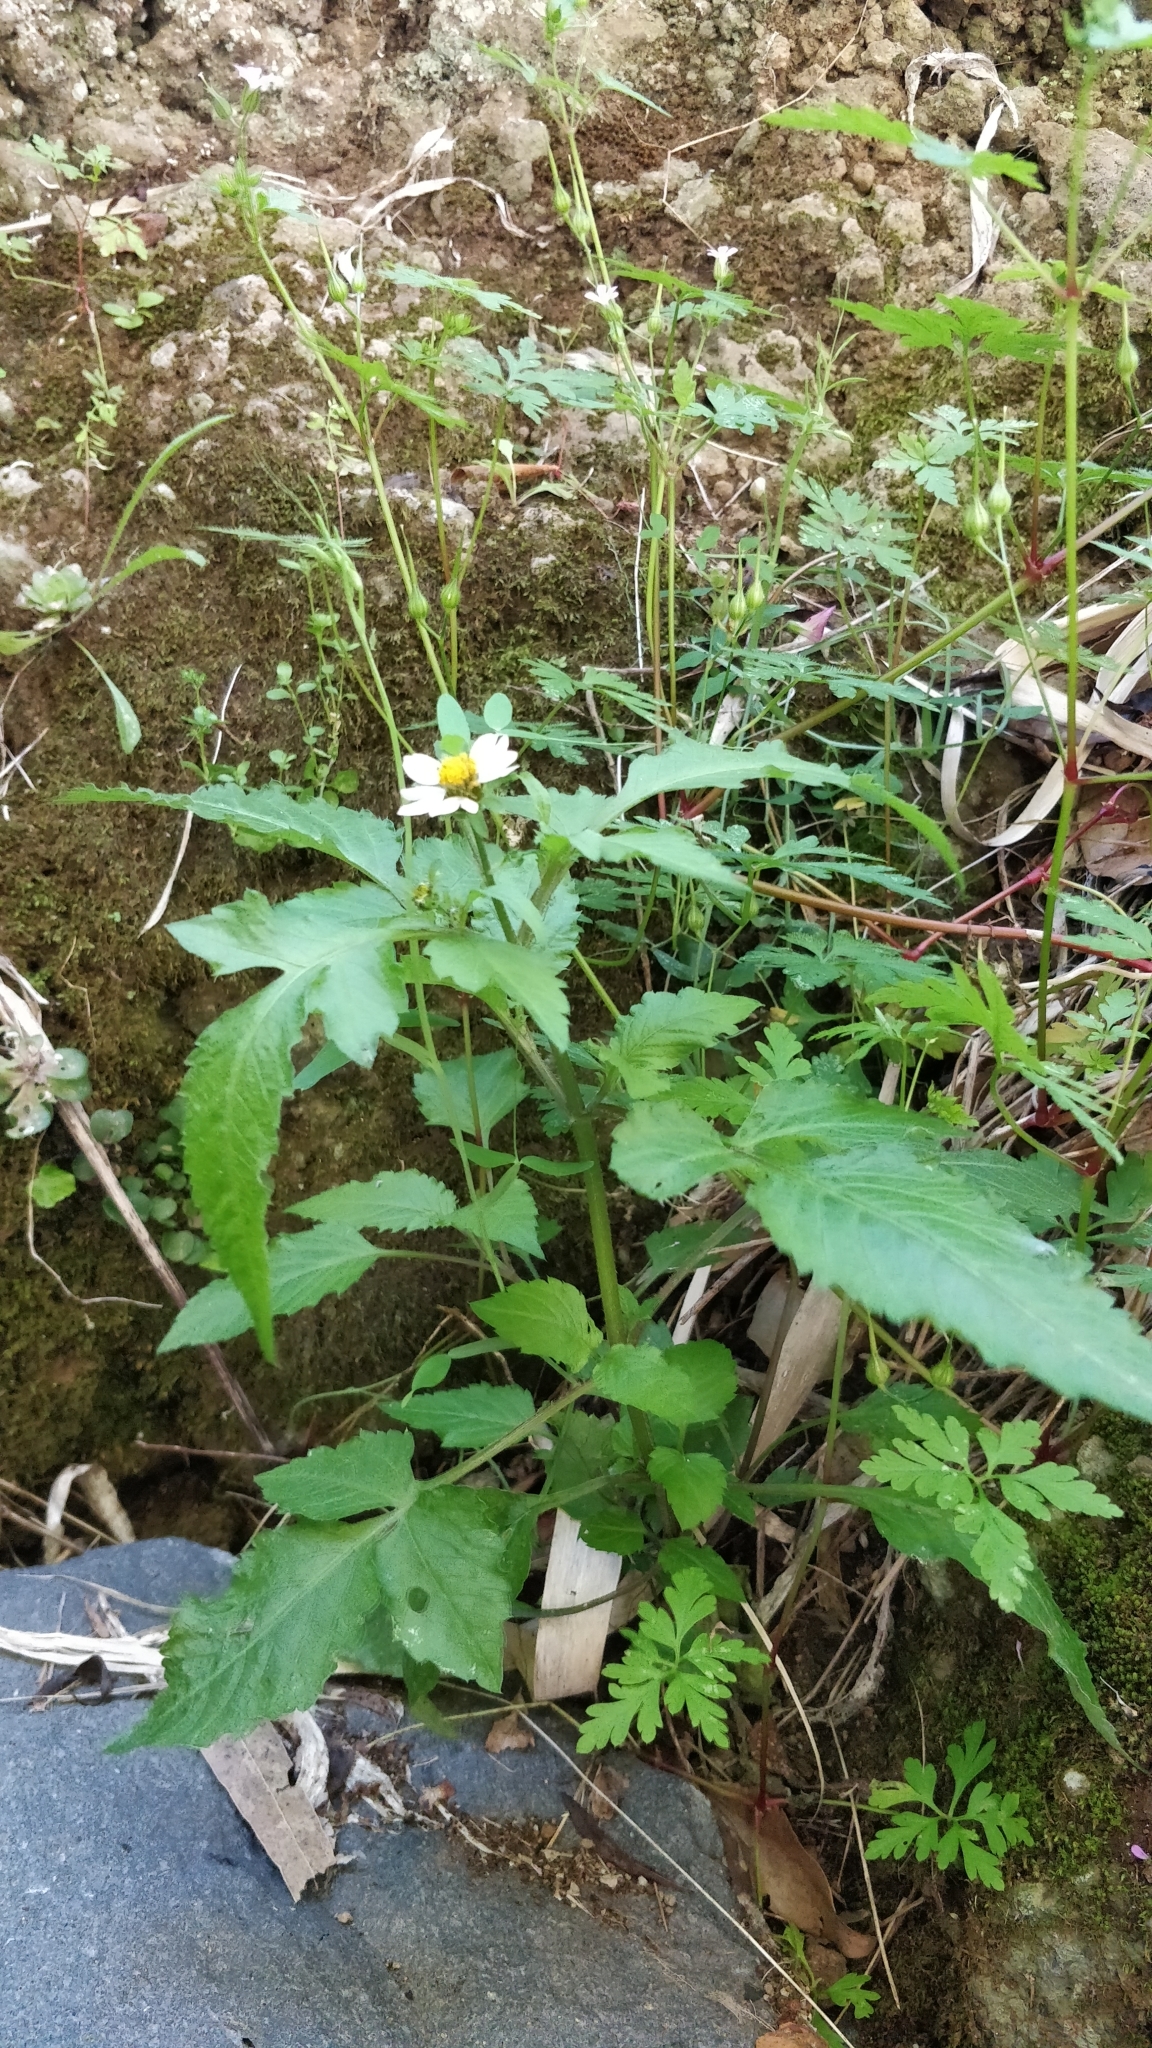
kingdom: Plantae
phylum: Tracheophyta
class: Magnoliopsida
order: Asterales
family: Asteraceae
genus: Bidens
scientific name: Bidens pilosa
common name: Black-jack
